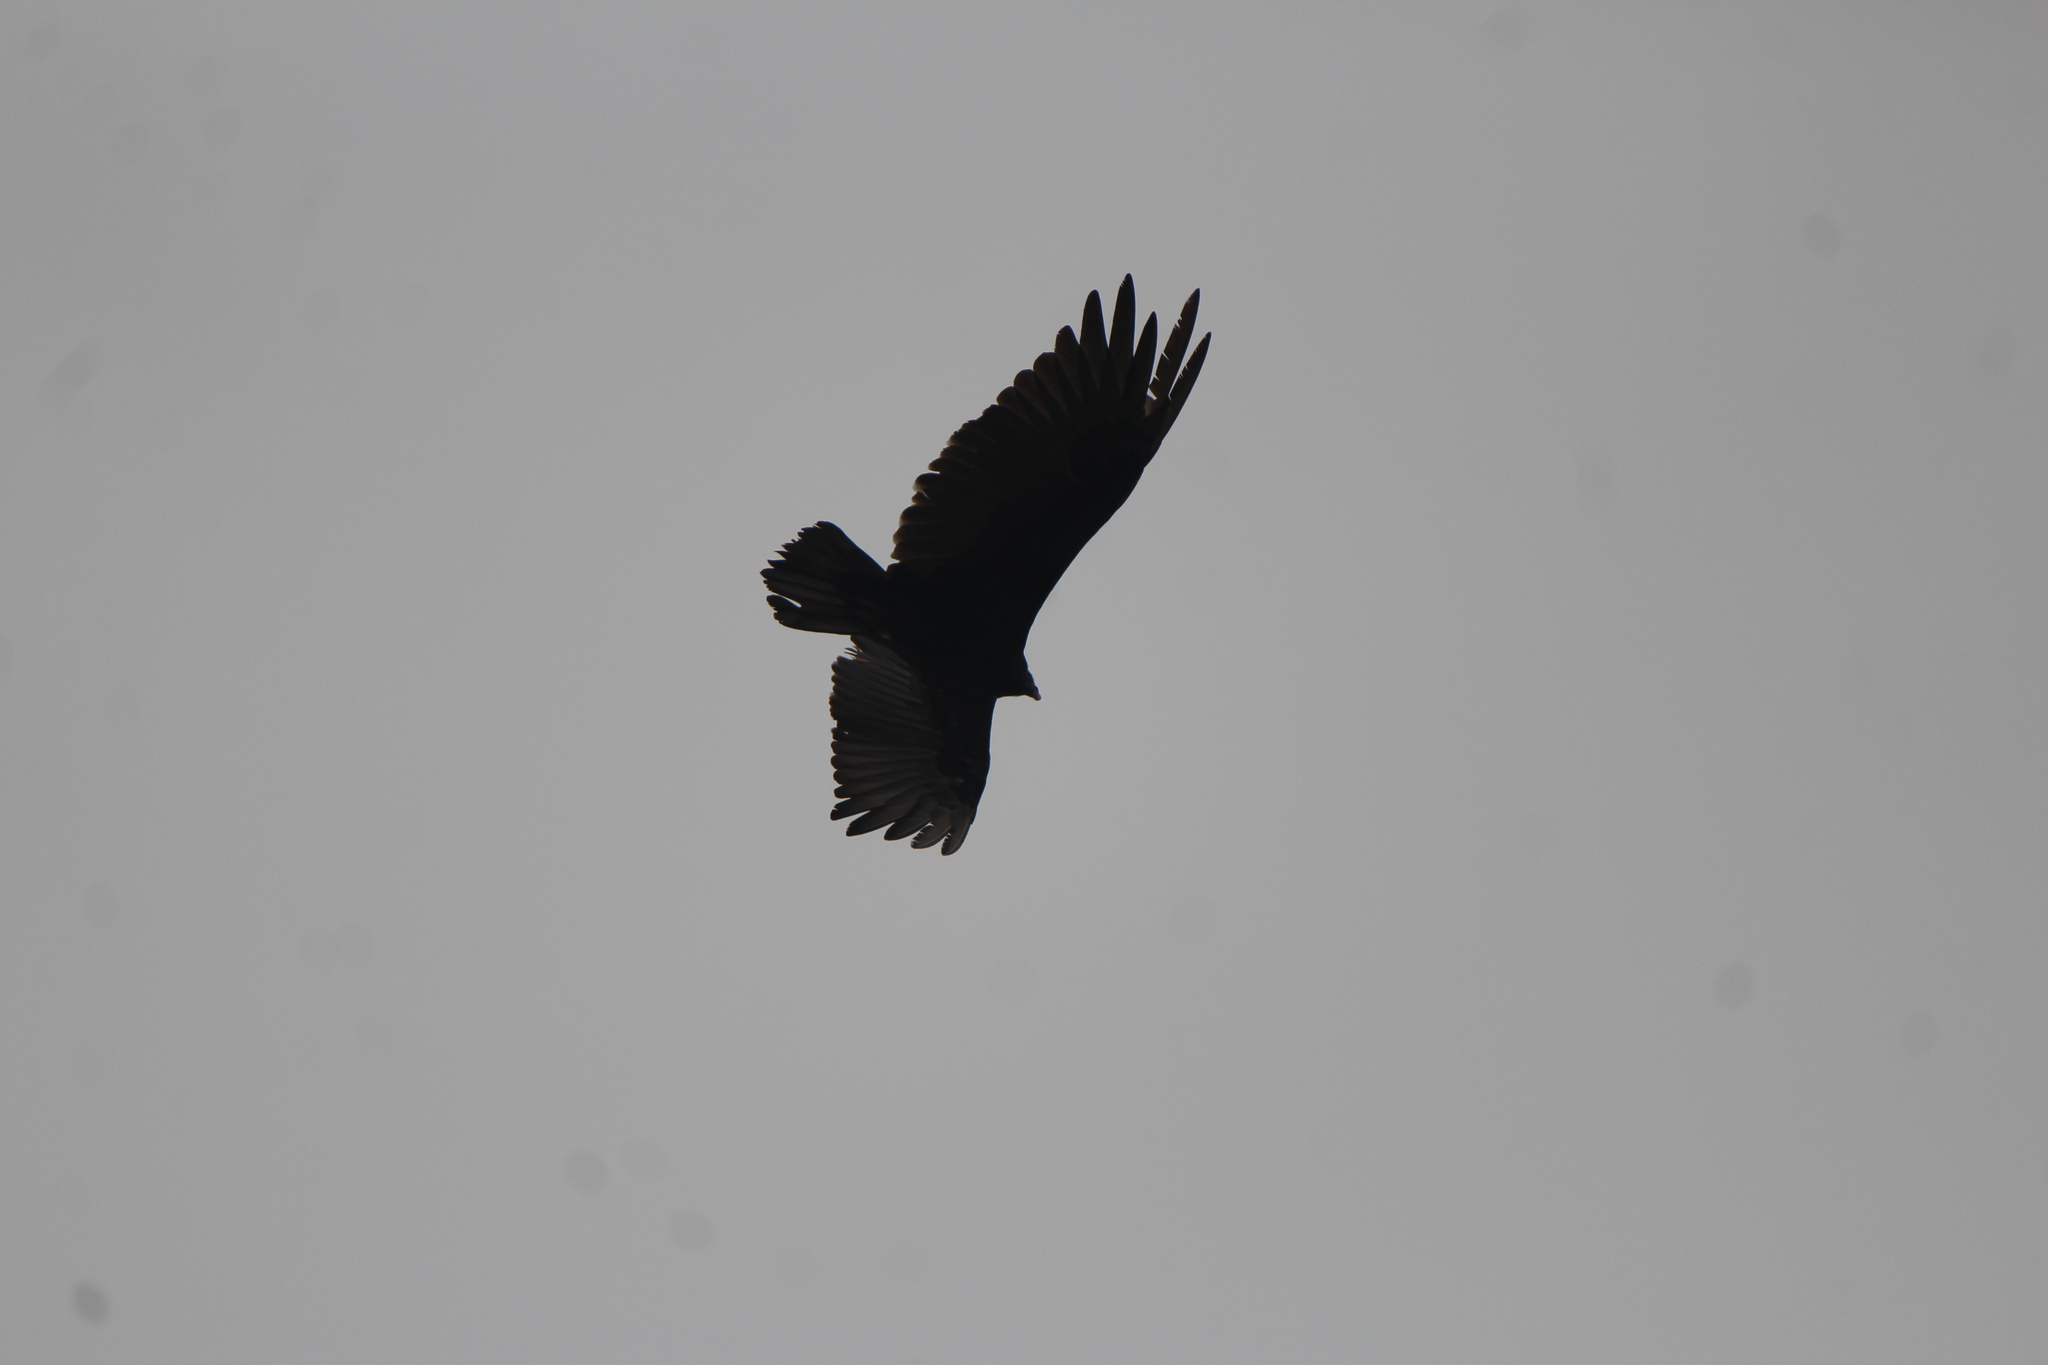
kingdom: Animalia
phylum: Chordata
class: Aves
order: Accipitriformes
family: Cathartidae
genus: Cathartes
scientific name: Cathartes aura
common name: Turkey vulture
